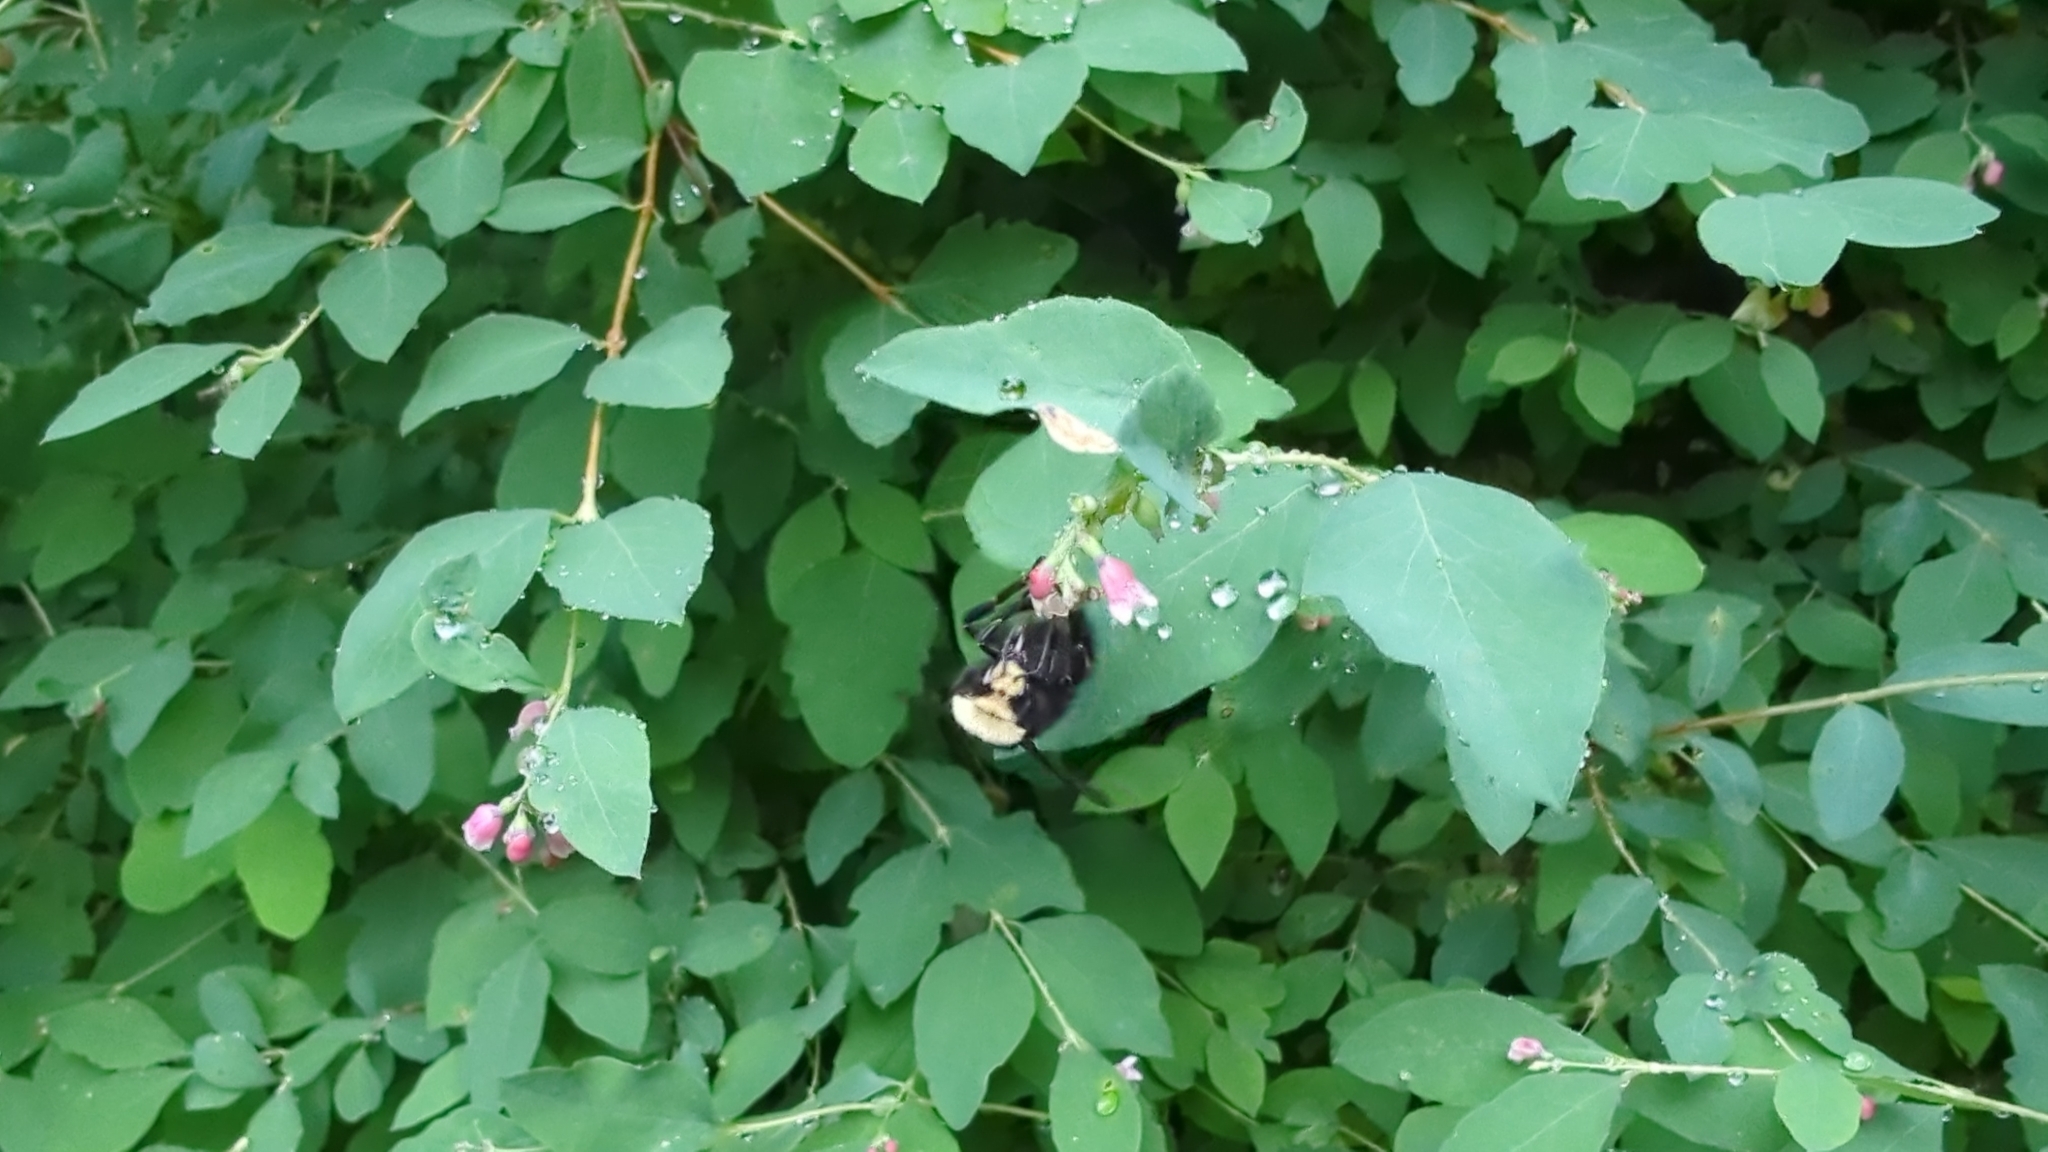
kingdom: Animalia
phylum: Arthropoda
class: Insecta
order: Hymenoptera
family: Apidae
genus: Bombus
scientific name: Bombus vosnesenskii
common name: Vosnesensky bumble bee
